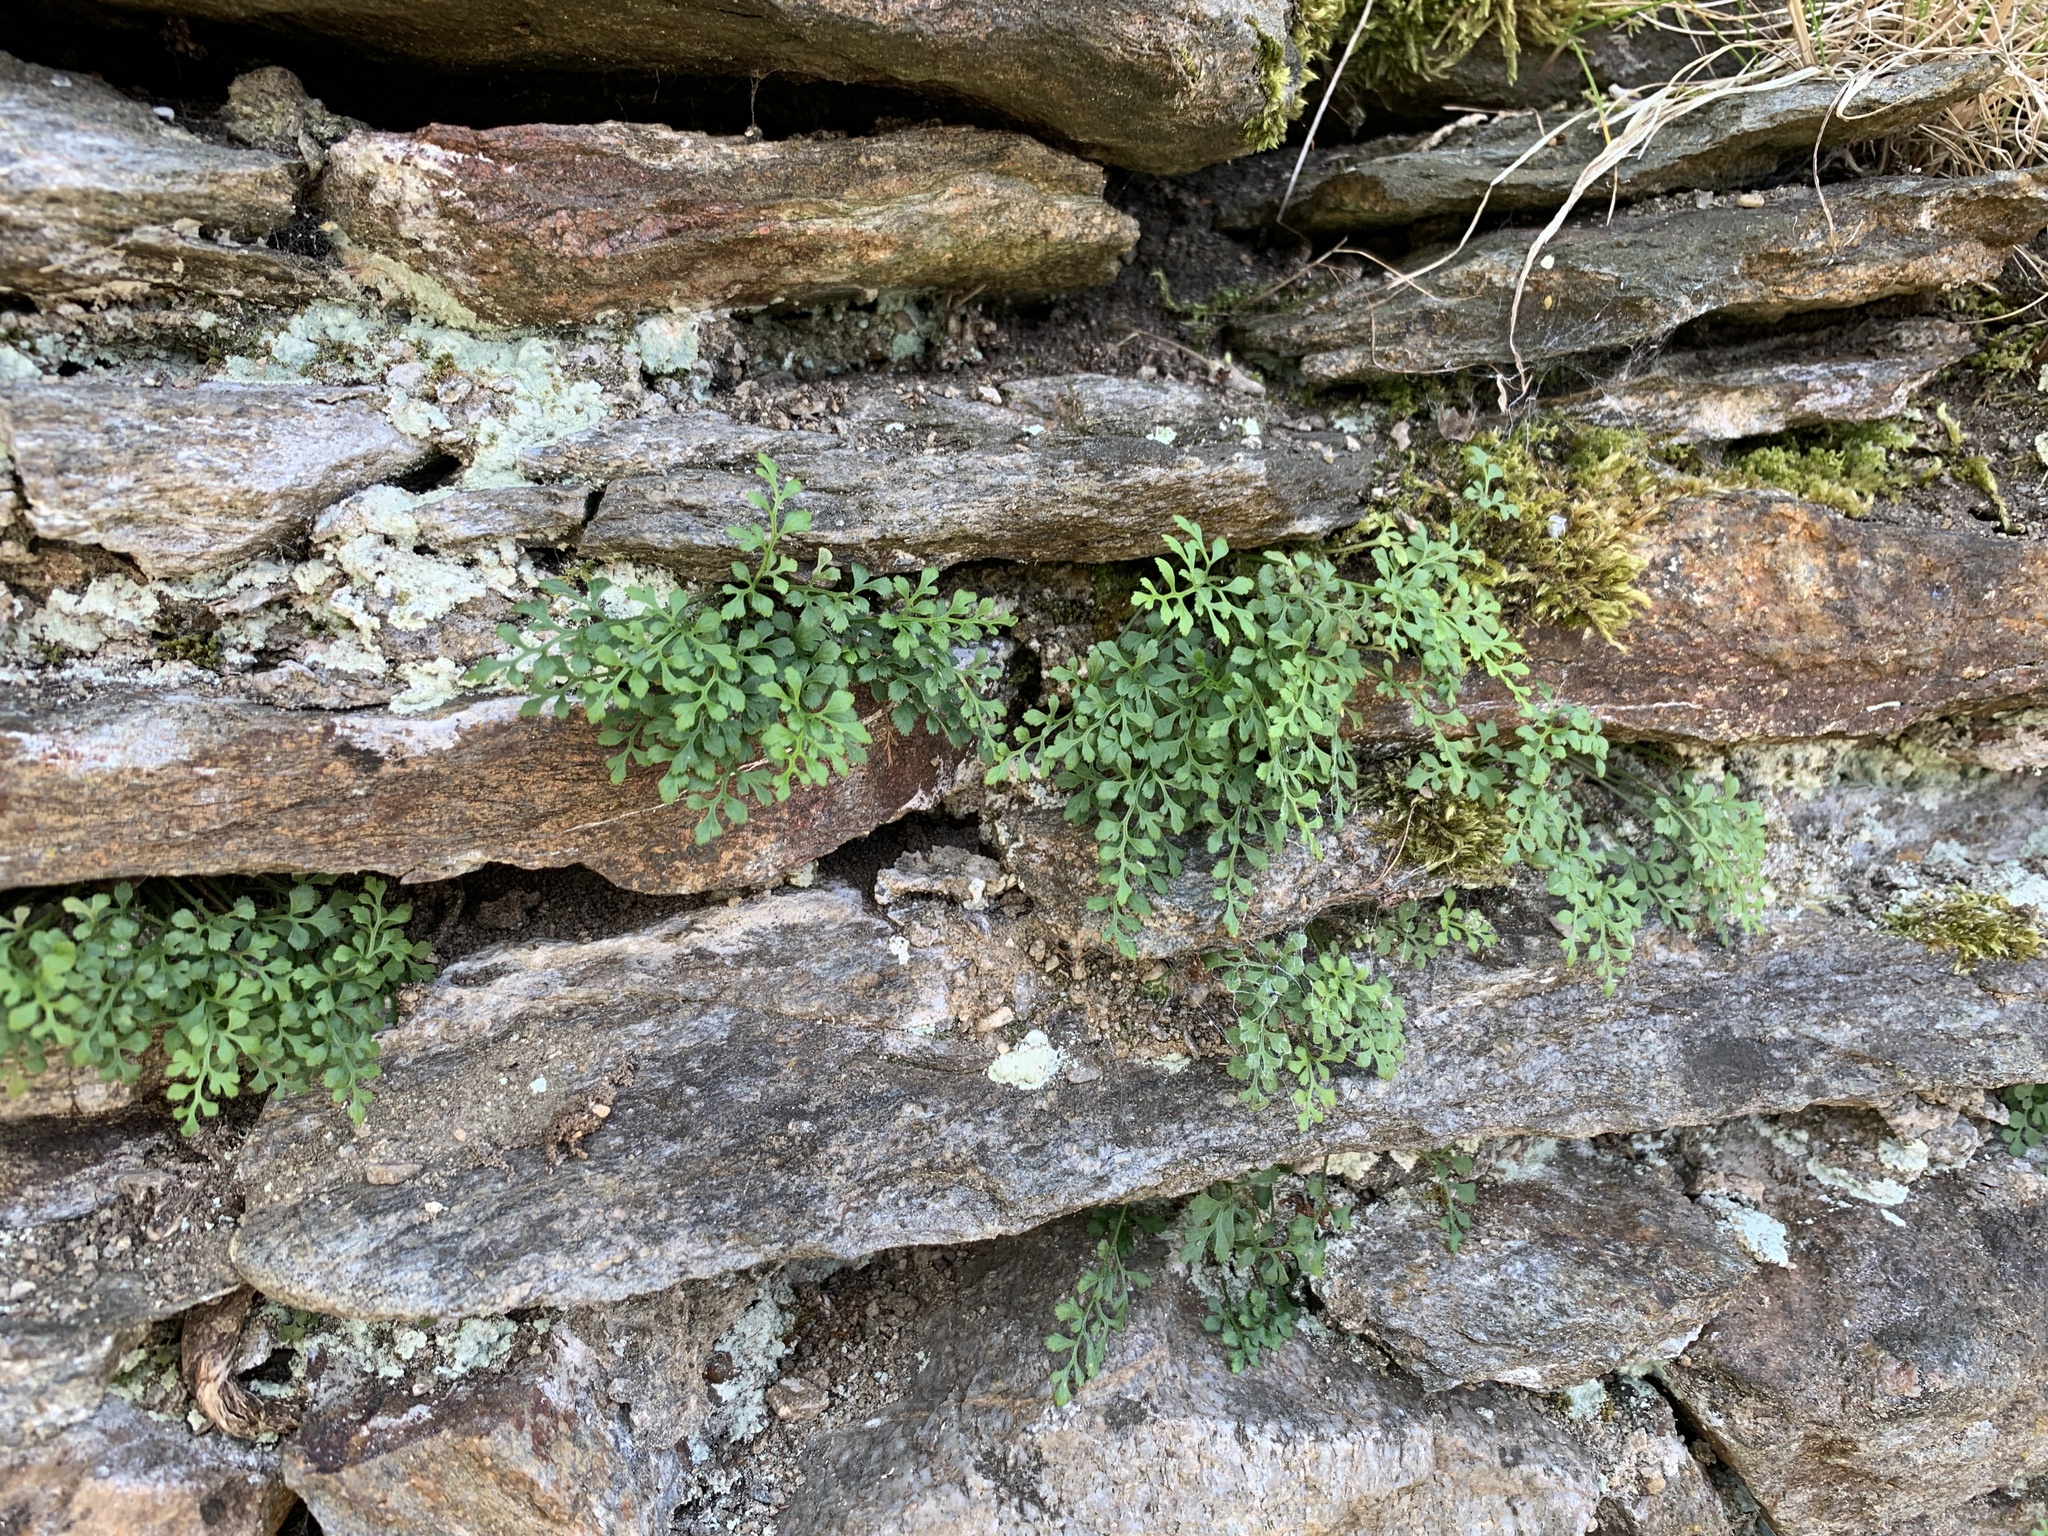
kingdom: Plantae
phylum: Tracheophyta
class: Polypodiopsida
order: Polypodiales
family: Aspleniaceae
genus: Asplenium
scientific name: Asplenium ruta-muraria
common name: Wall-rue
